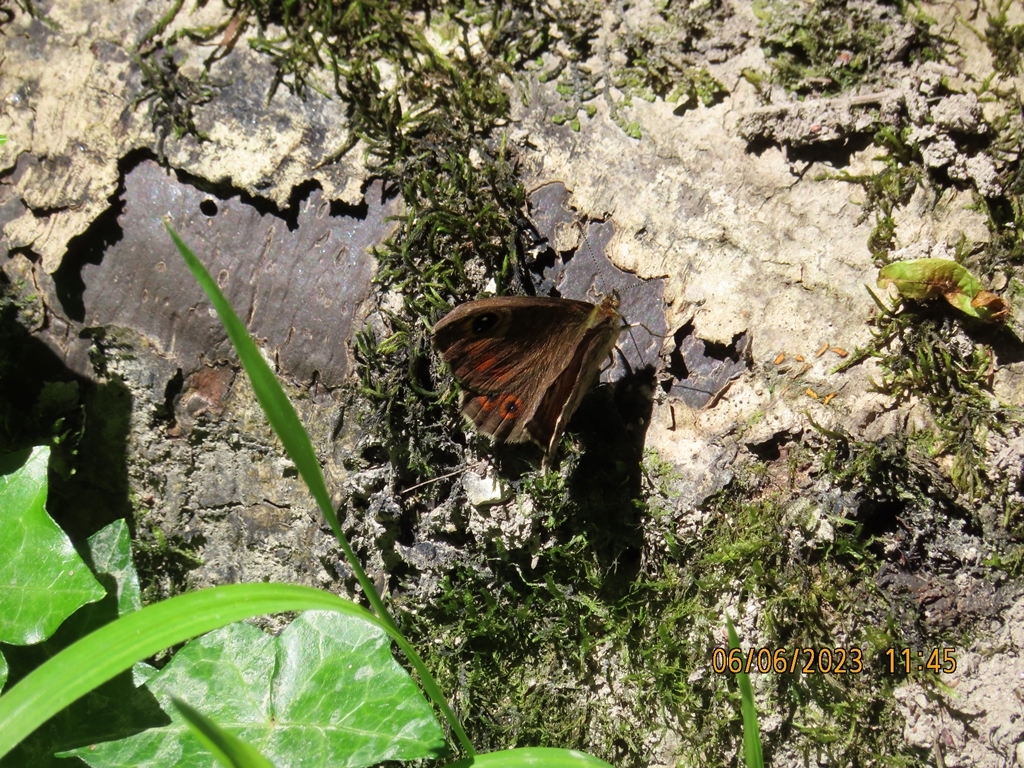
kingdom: Animalia
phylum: Arthropoda
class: Insecta
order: Lepidoptera
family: Nymphalidae
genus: Pararge
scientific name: Pararge Lasiommata maera
